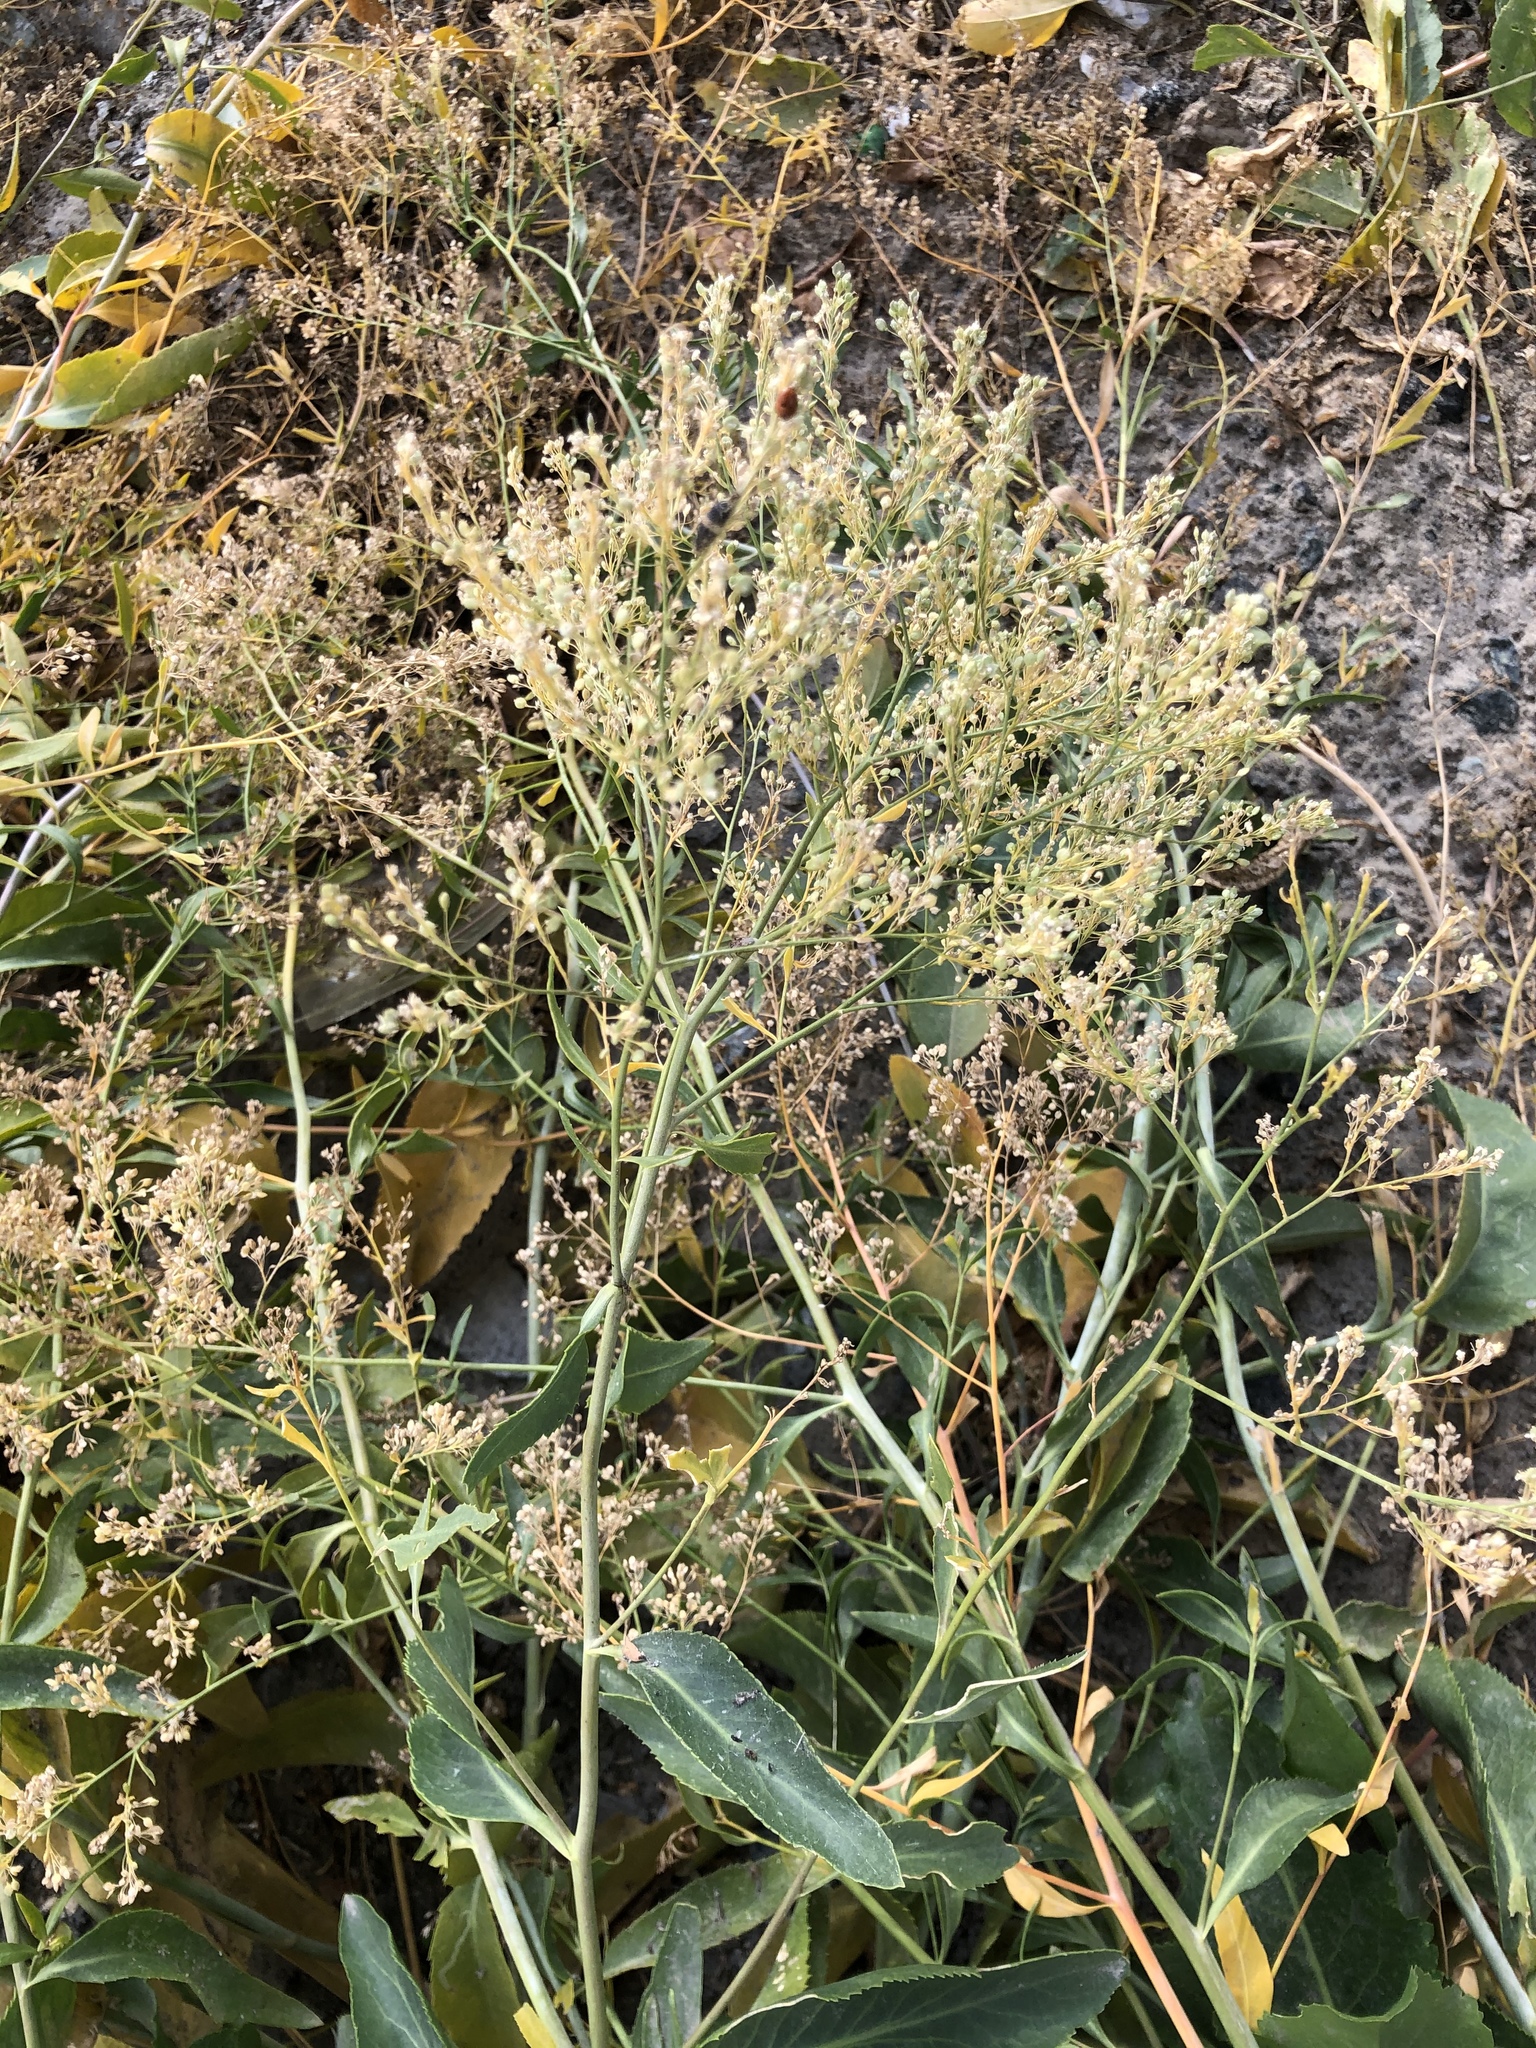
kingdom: Plantae
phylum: Tracheophyta
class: Magnoliopsida
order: Brassicales
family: Brassicaceae
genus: Lepidium
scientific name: Lepidium latifolium
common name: Dittander
